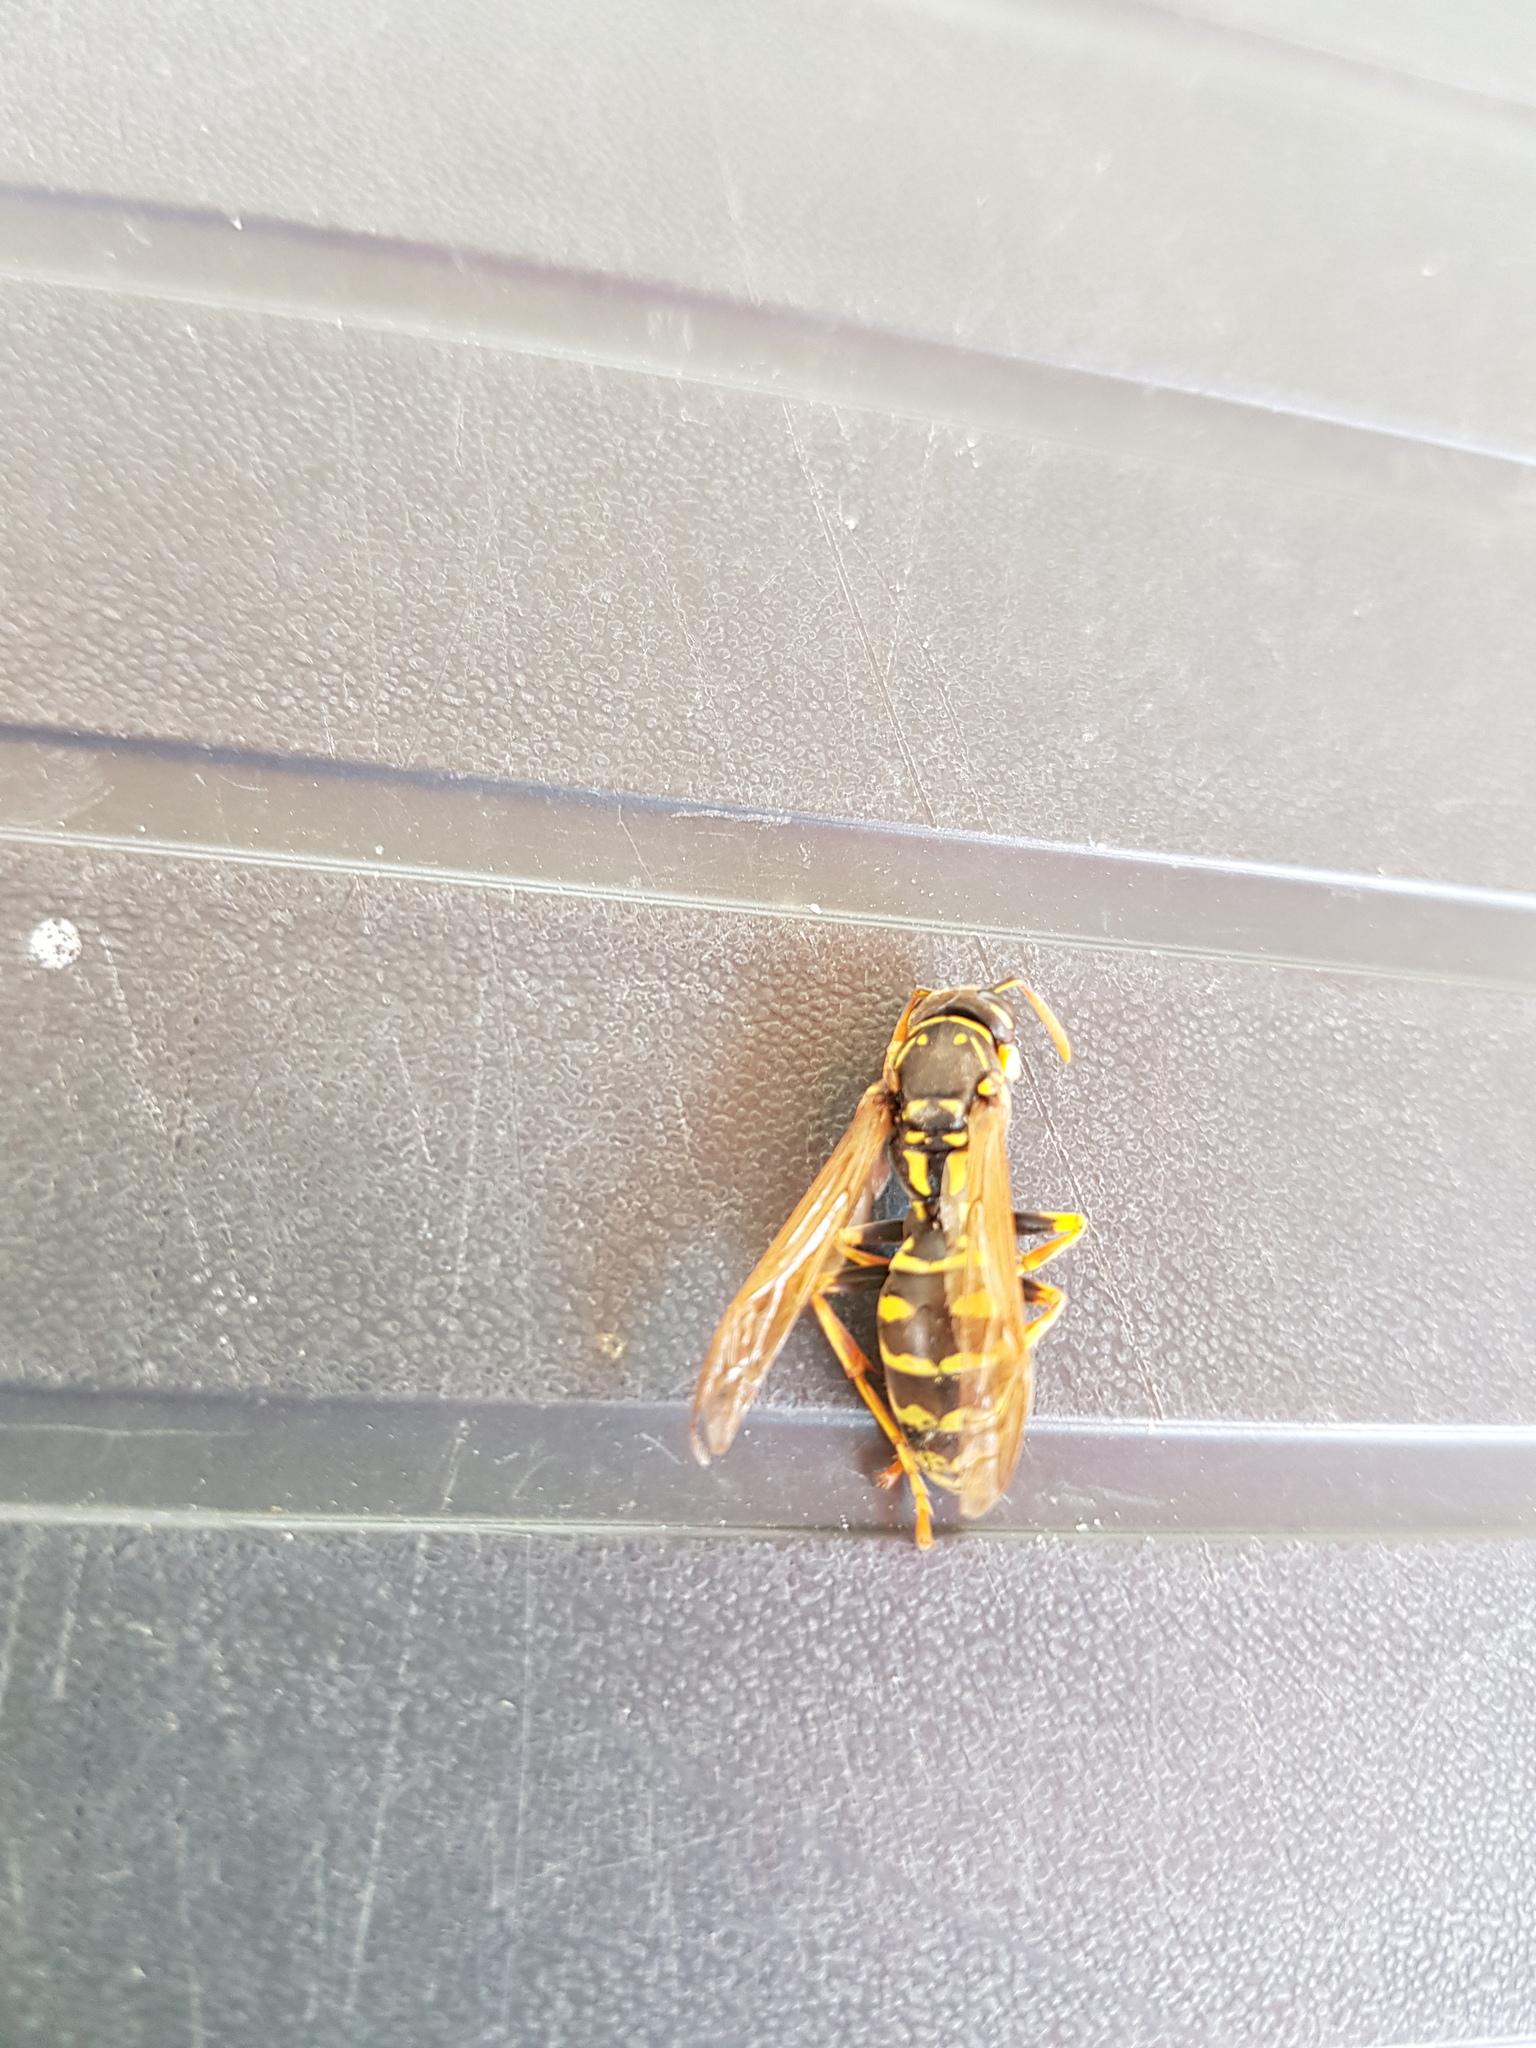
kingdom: Animalia
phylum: Arthropoda
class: Insecta
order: Hymenoptera
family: Eumenidae
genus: Polistes
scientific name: Polistes dominula
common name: Paper wasp
